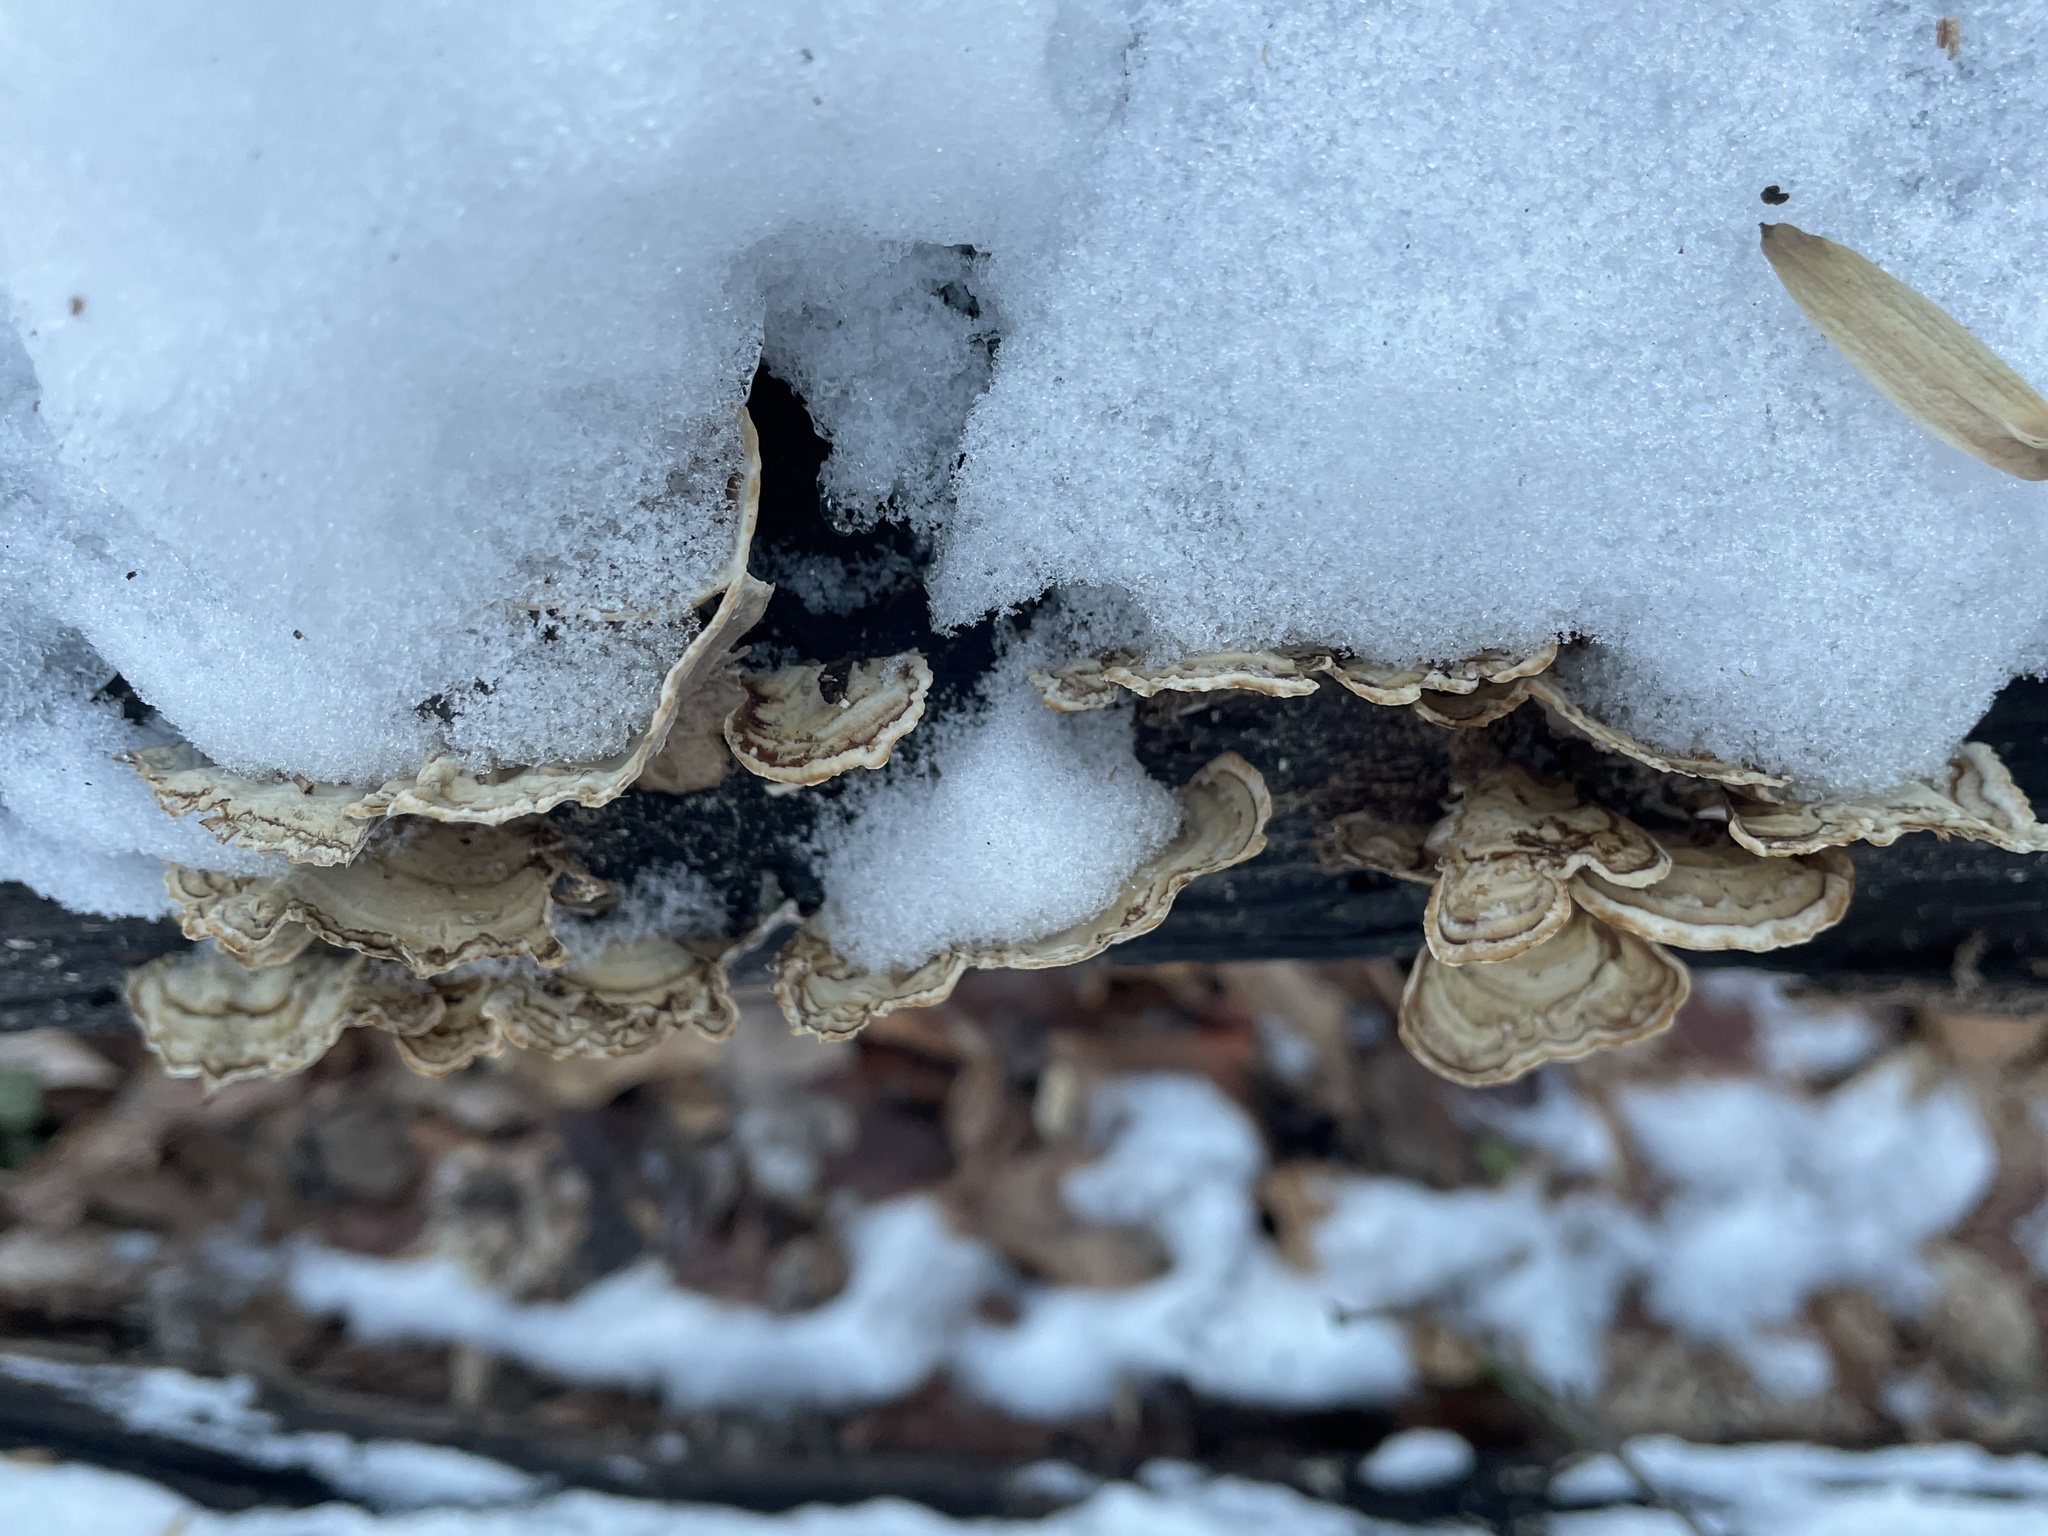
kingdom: Fungi
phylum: Basidiomycota
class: Agaricomycetes
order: Russulales
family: Stereaceae
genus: Stereum
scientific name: Stereum ostrea
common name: False turkeytail
